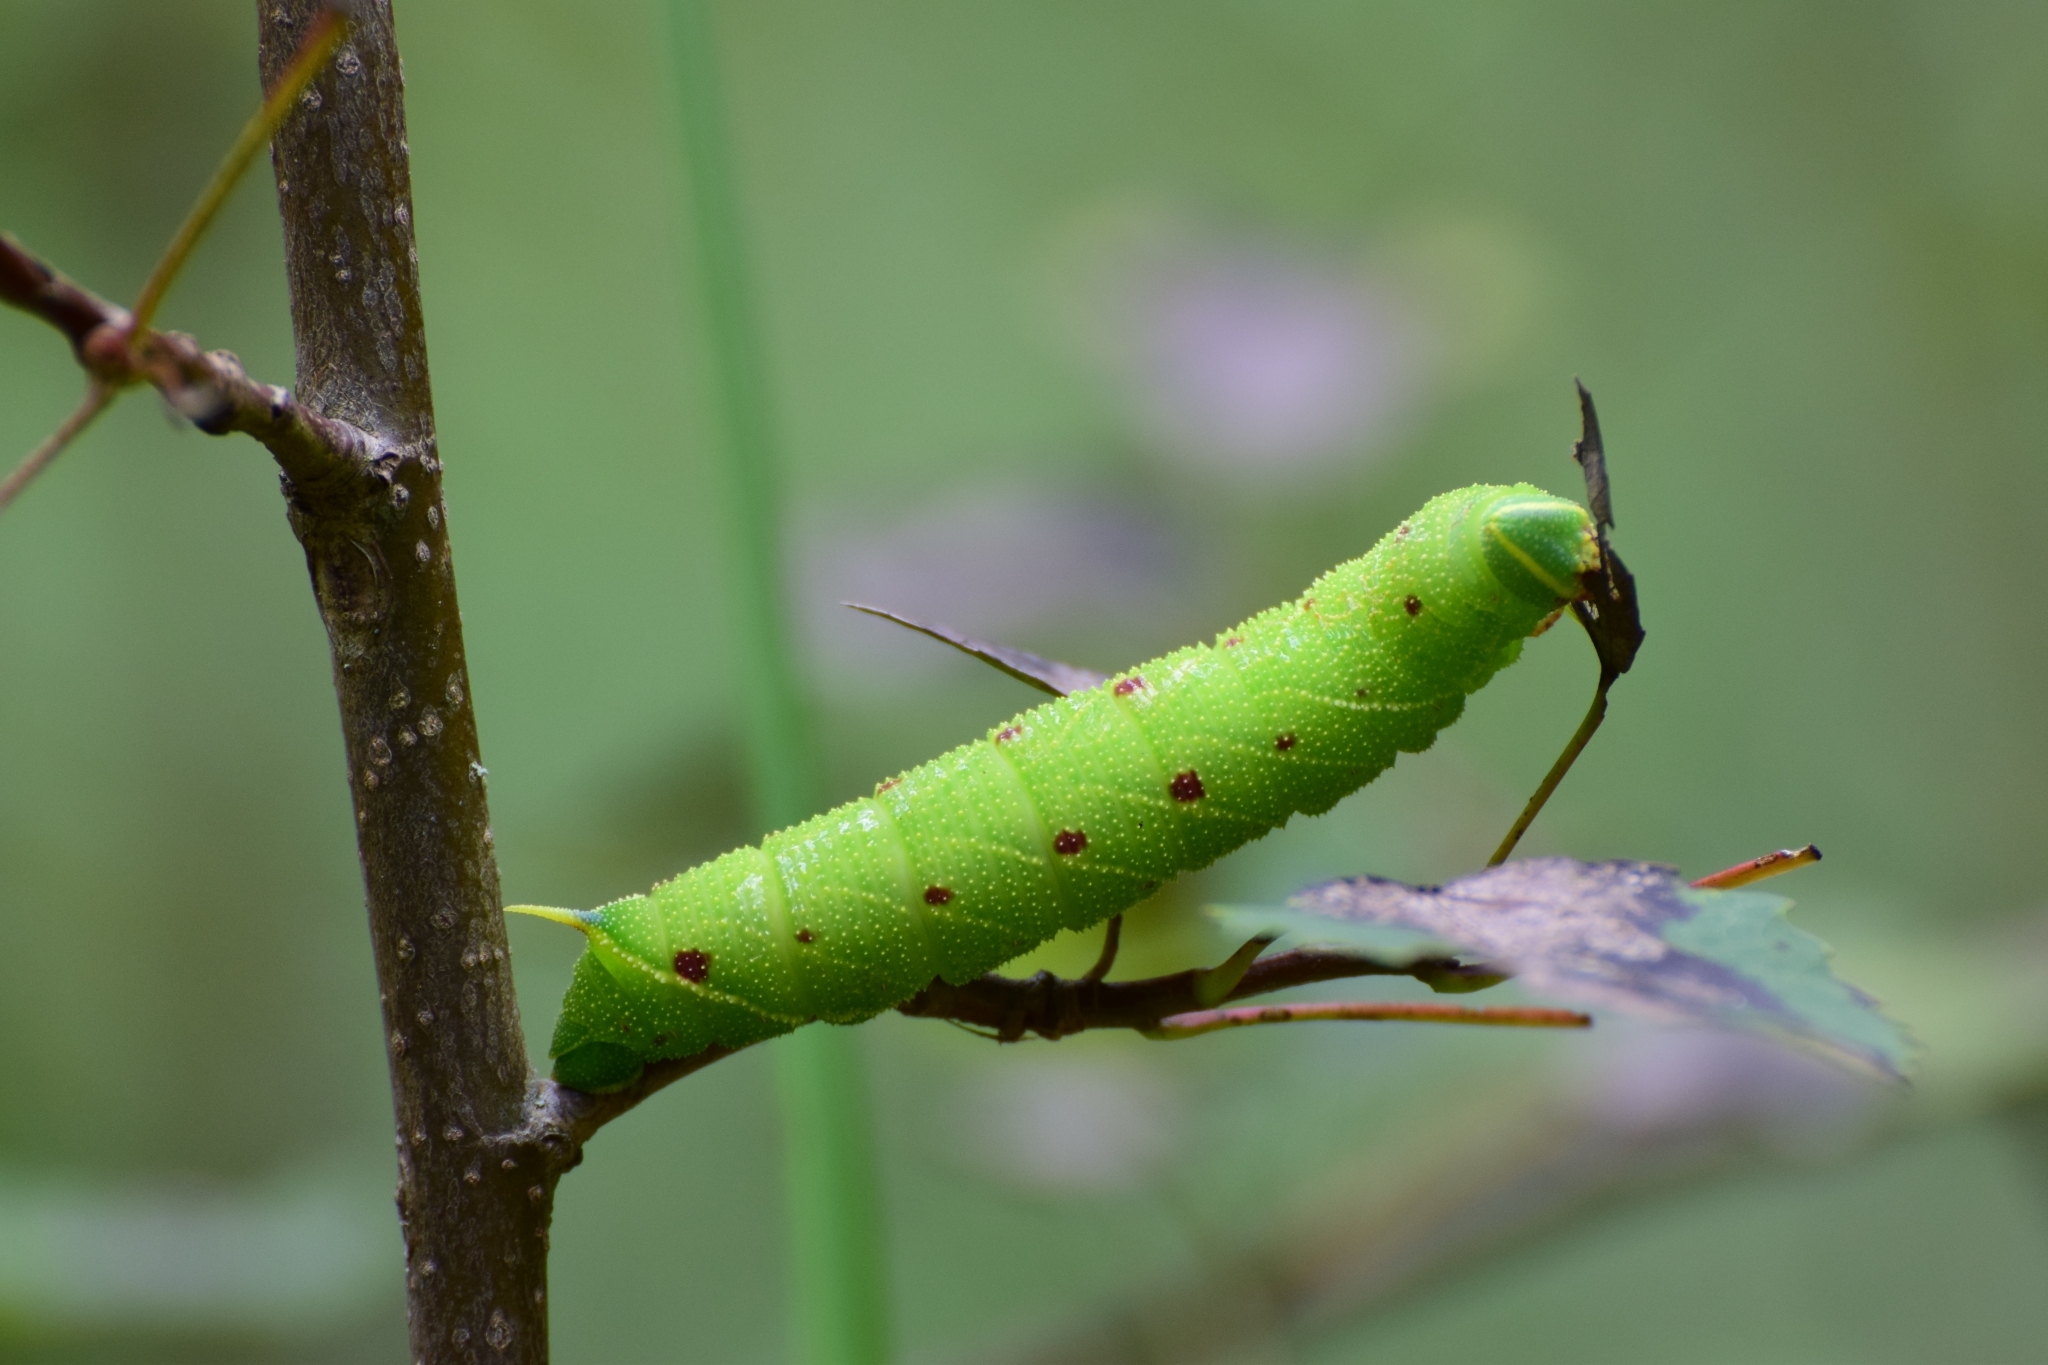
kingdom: Animalia
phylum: Arthropoda
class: Insecta
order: Lepidoptera
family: Sphingidae
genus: Laothoe
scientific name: Laothoe populi
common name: Poplar hawk-moth
